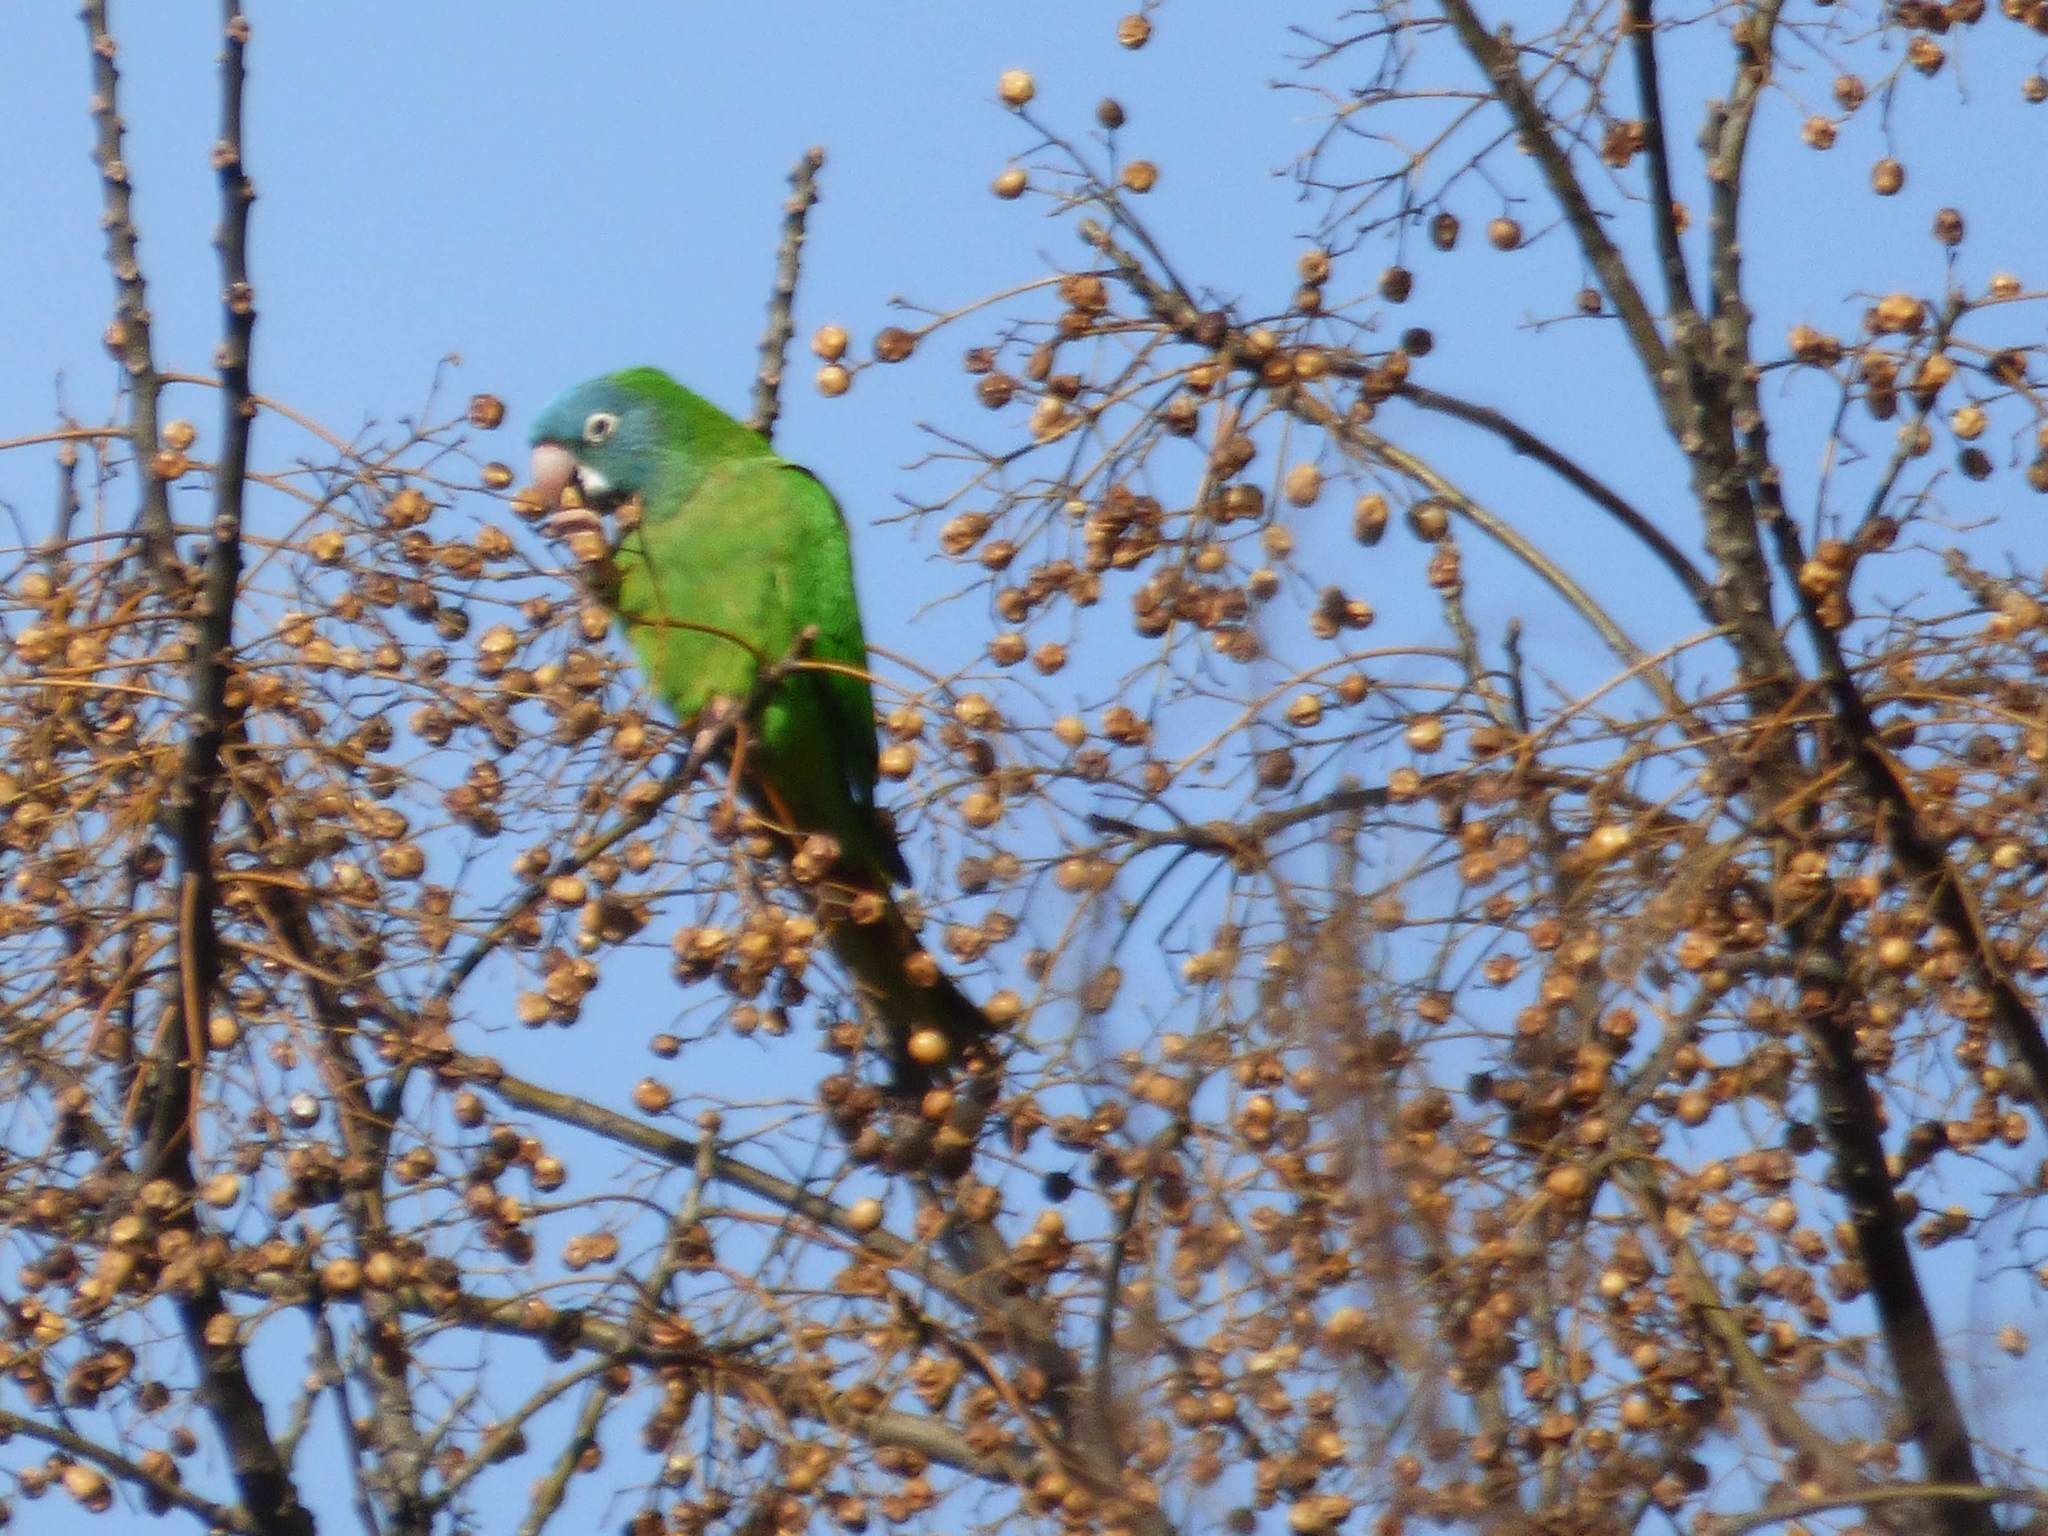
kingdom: Animalia
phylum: Chordata
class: Aves
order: Psittaciformes
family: Psittacidae
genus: Aratinga
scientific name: Aratinga acuticaudata
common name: Blue-crowned parakeet
